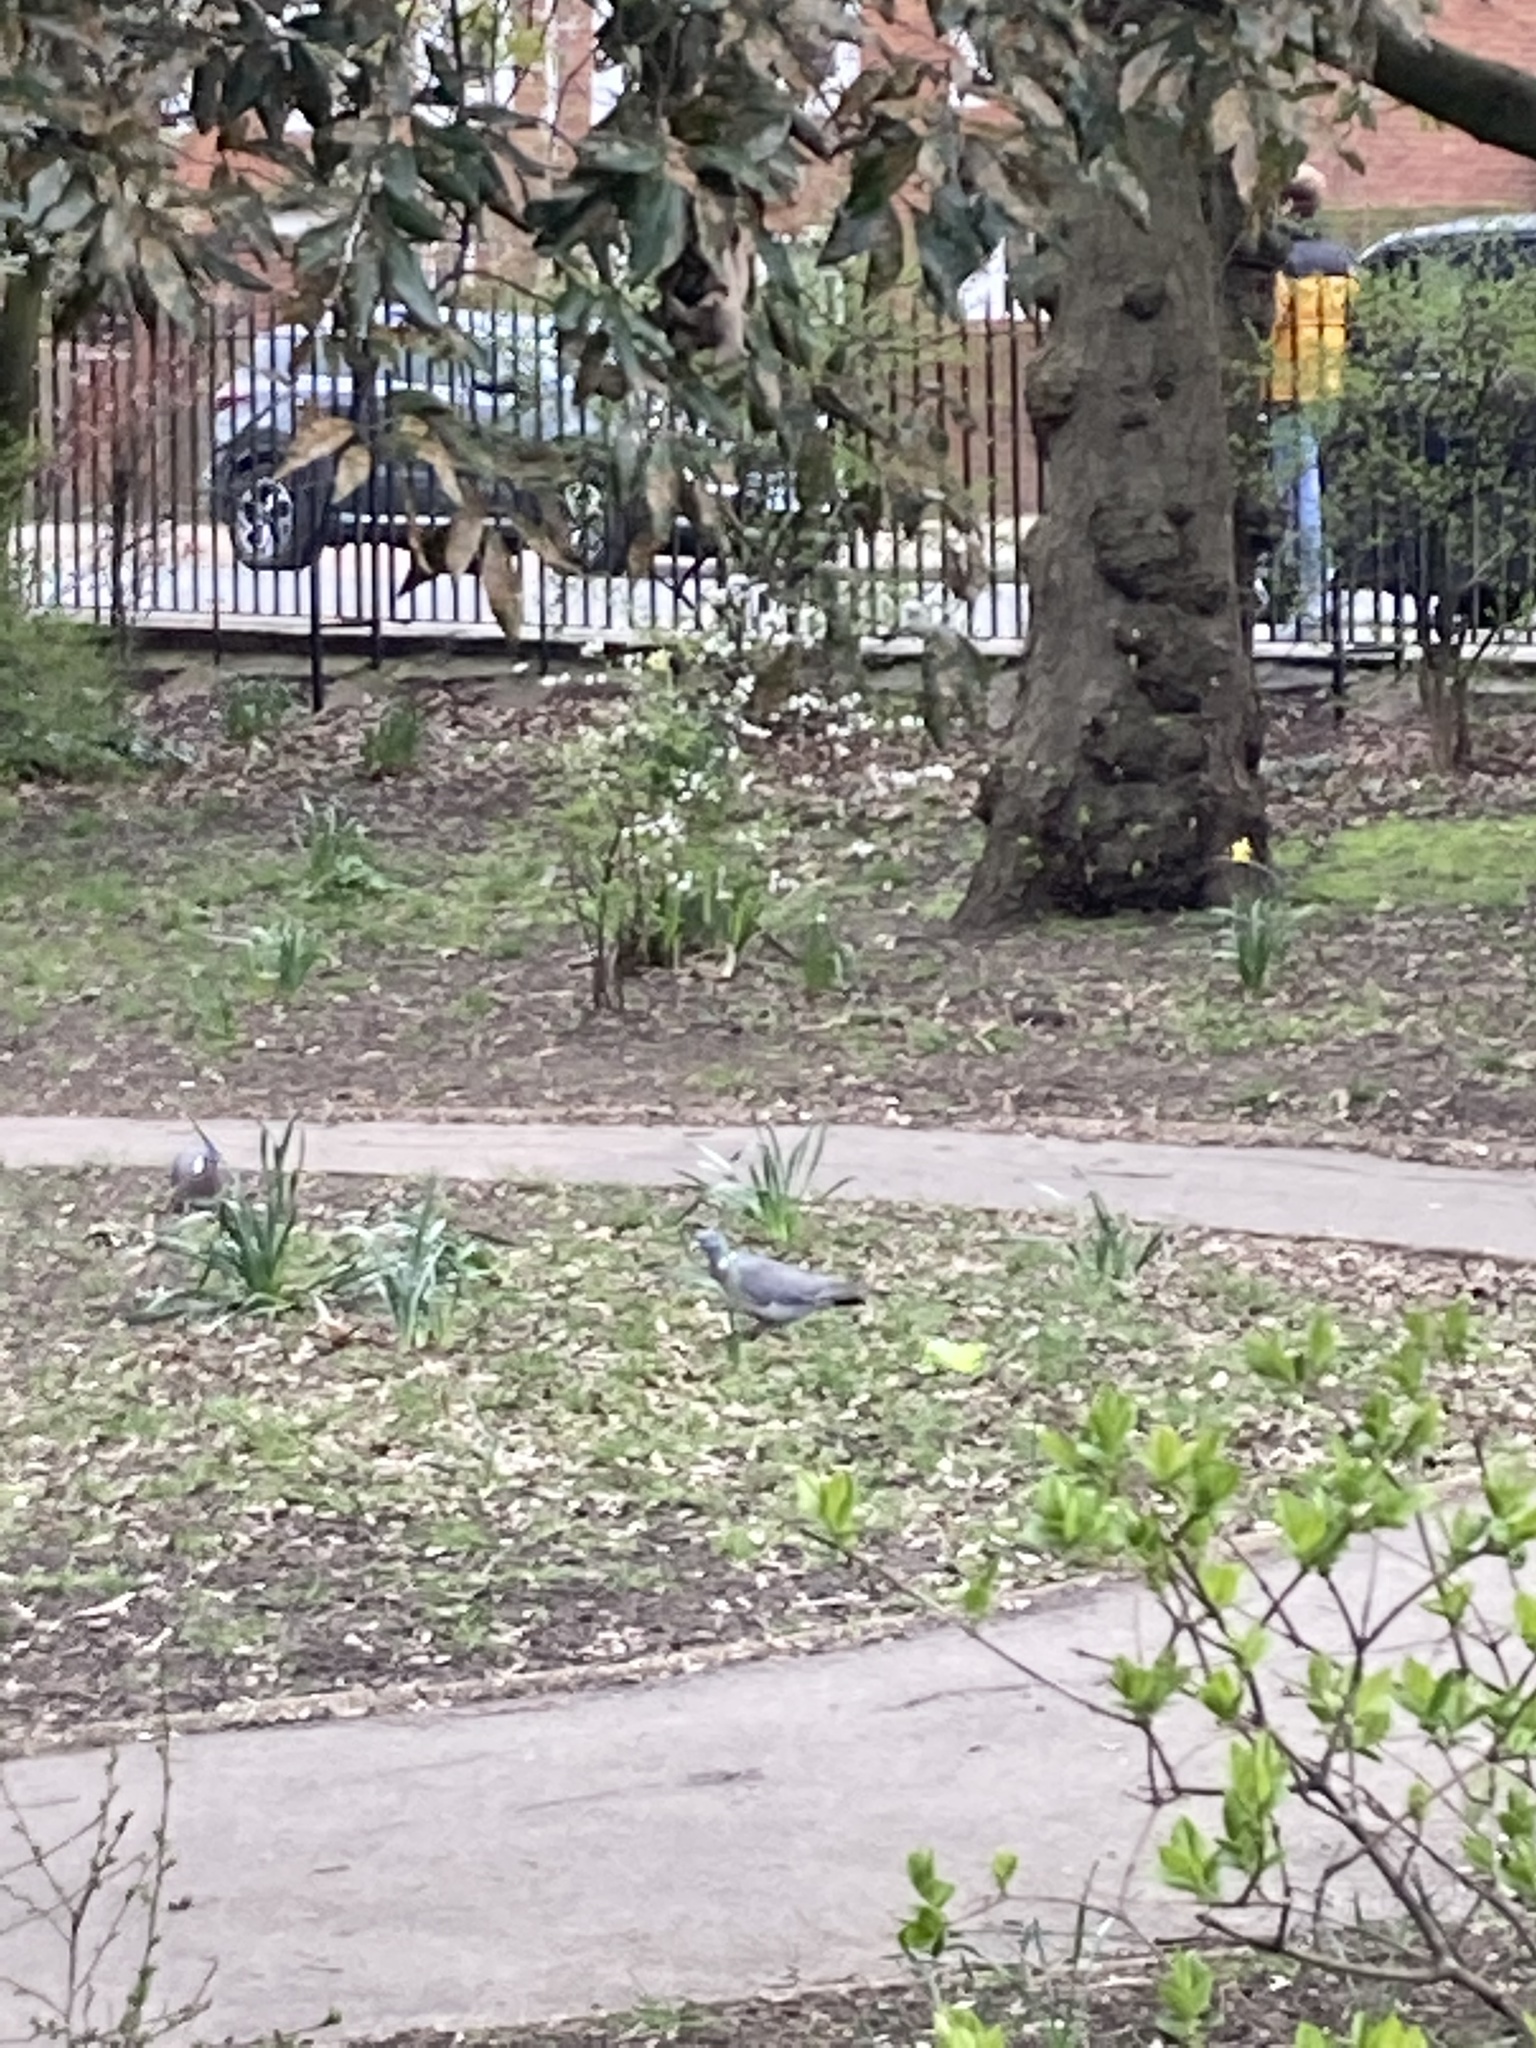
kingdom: Animalia
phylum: Chordata
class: Aves
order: Columbiformes
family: Columbidae
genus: Columba
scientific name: Columba palumbus
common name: Common wood pigeon
